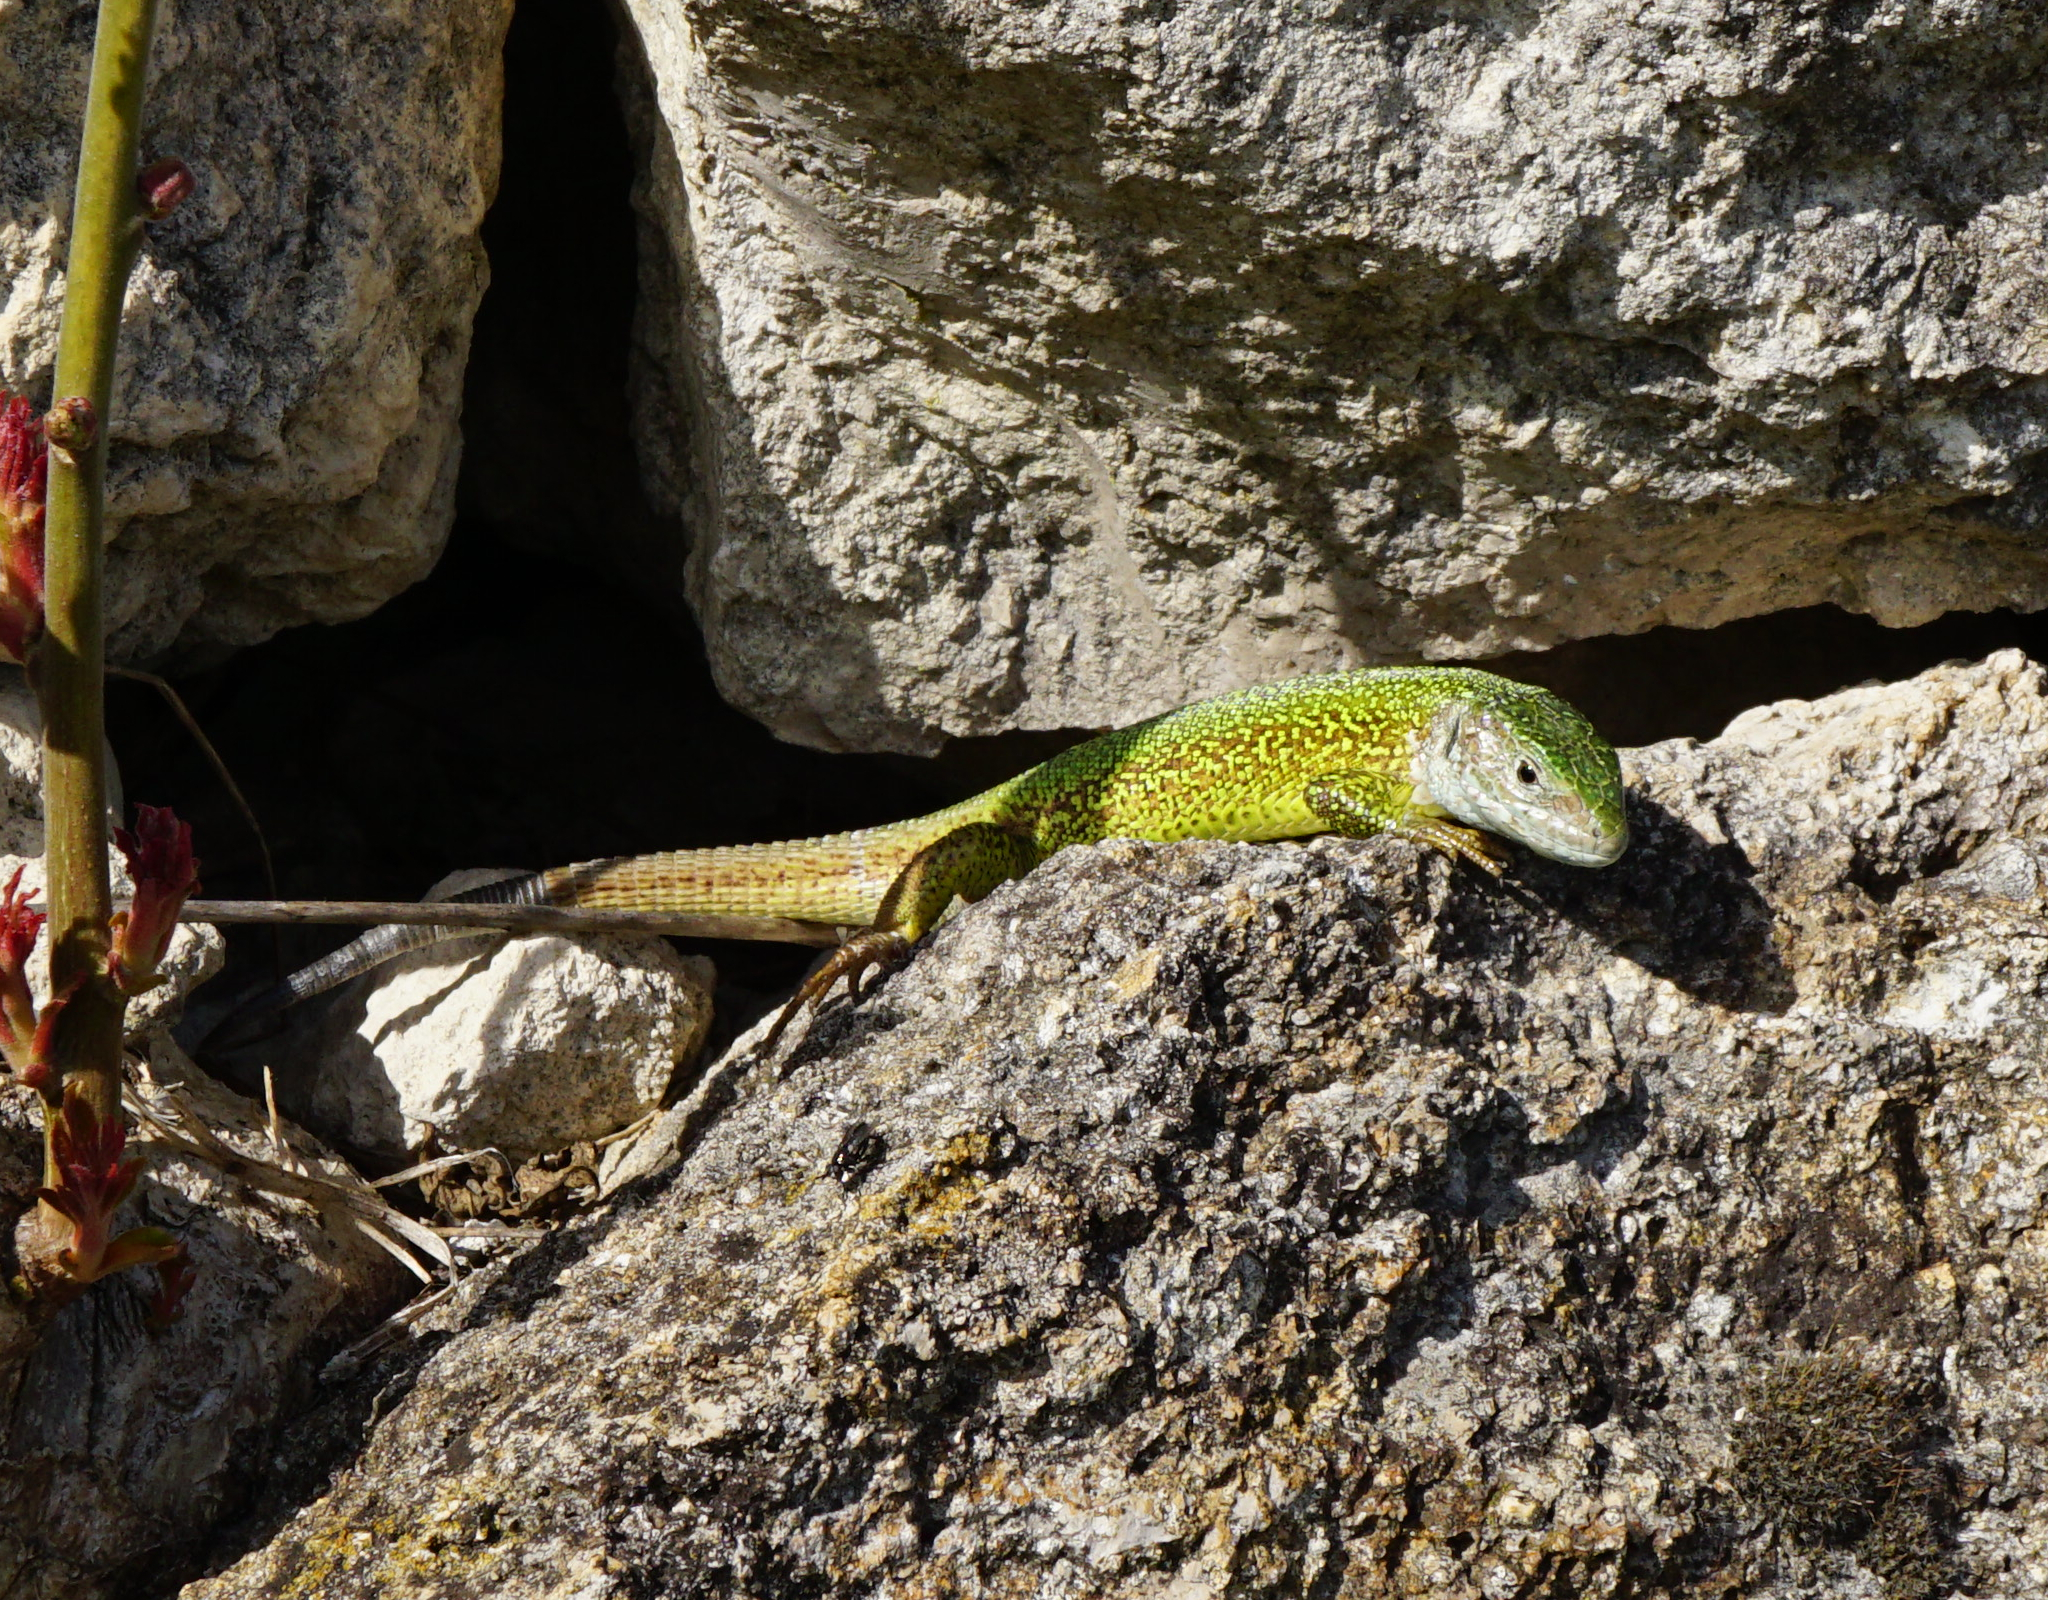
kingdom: Animalia
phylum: Chordata
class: Squamata
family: Lacertidae
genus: Lacerta
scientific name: Lacerta viridis
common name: European green lizard
